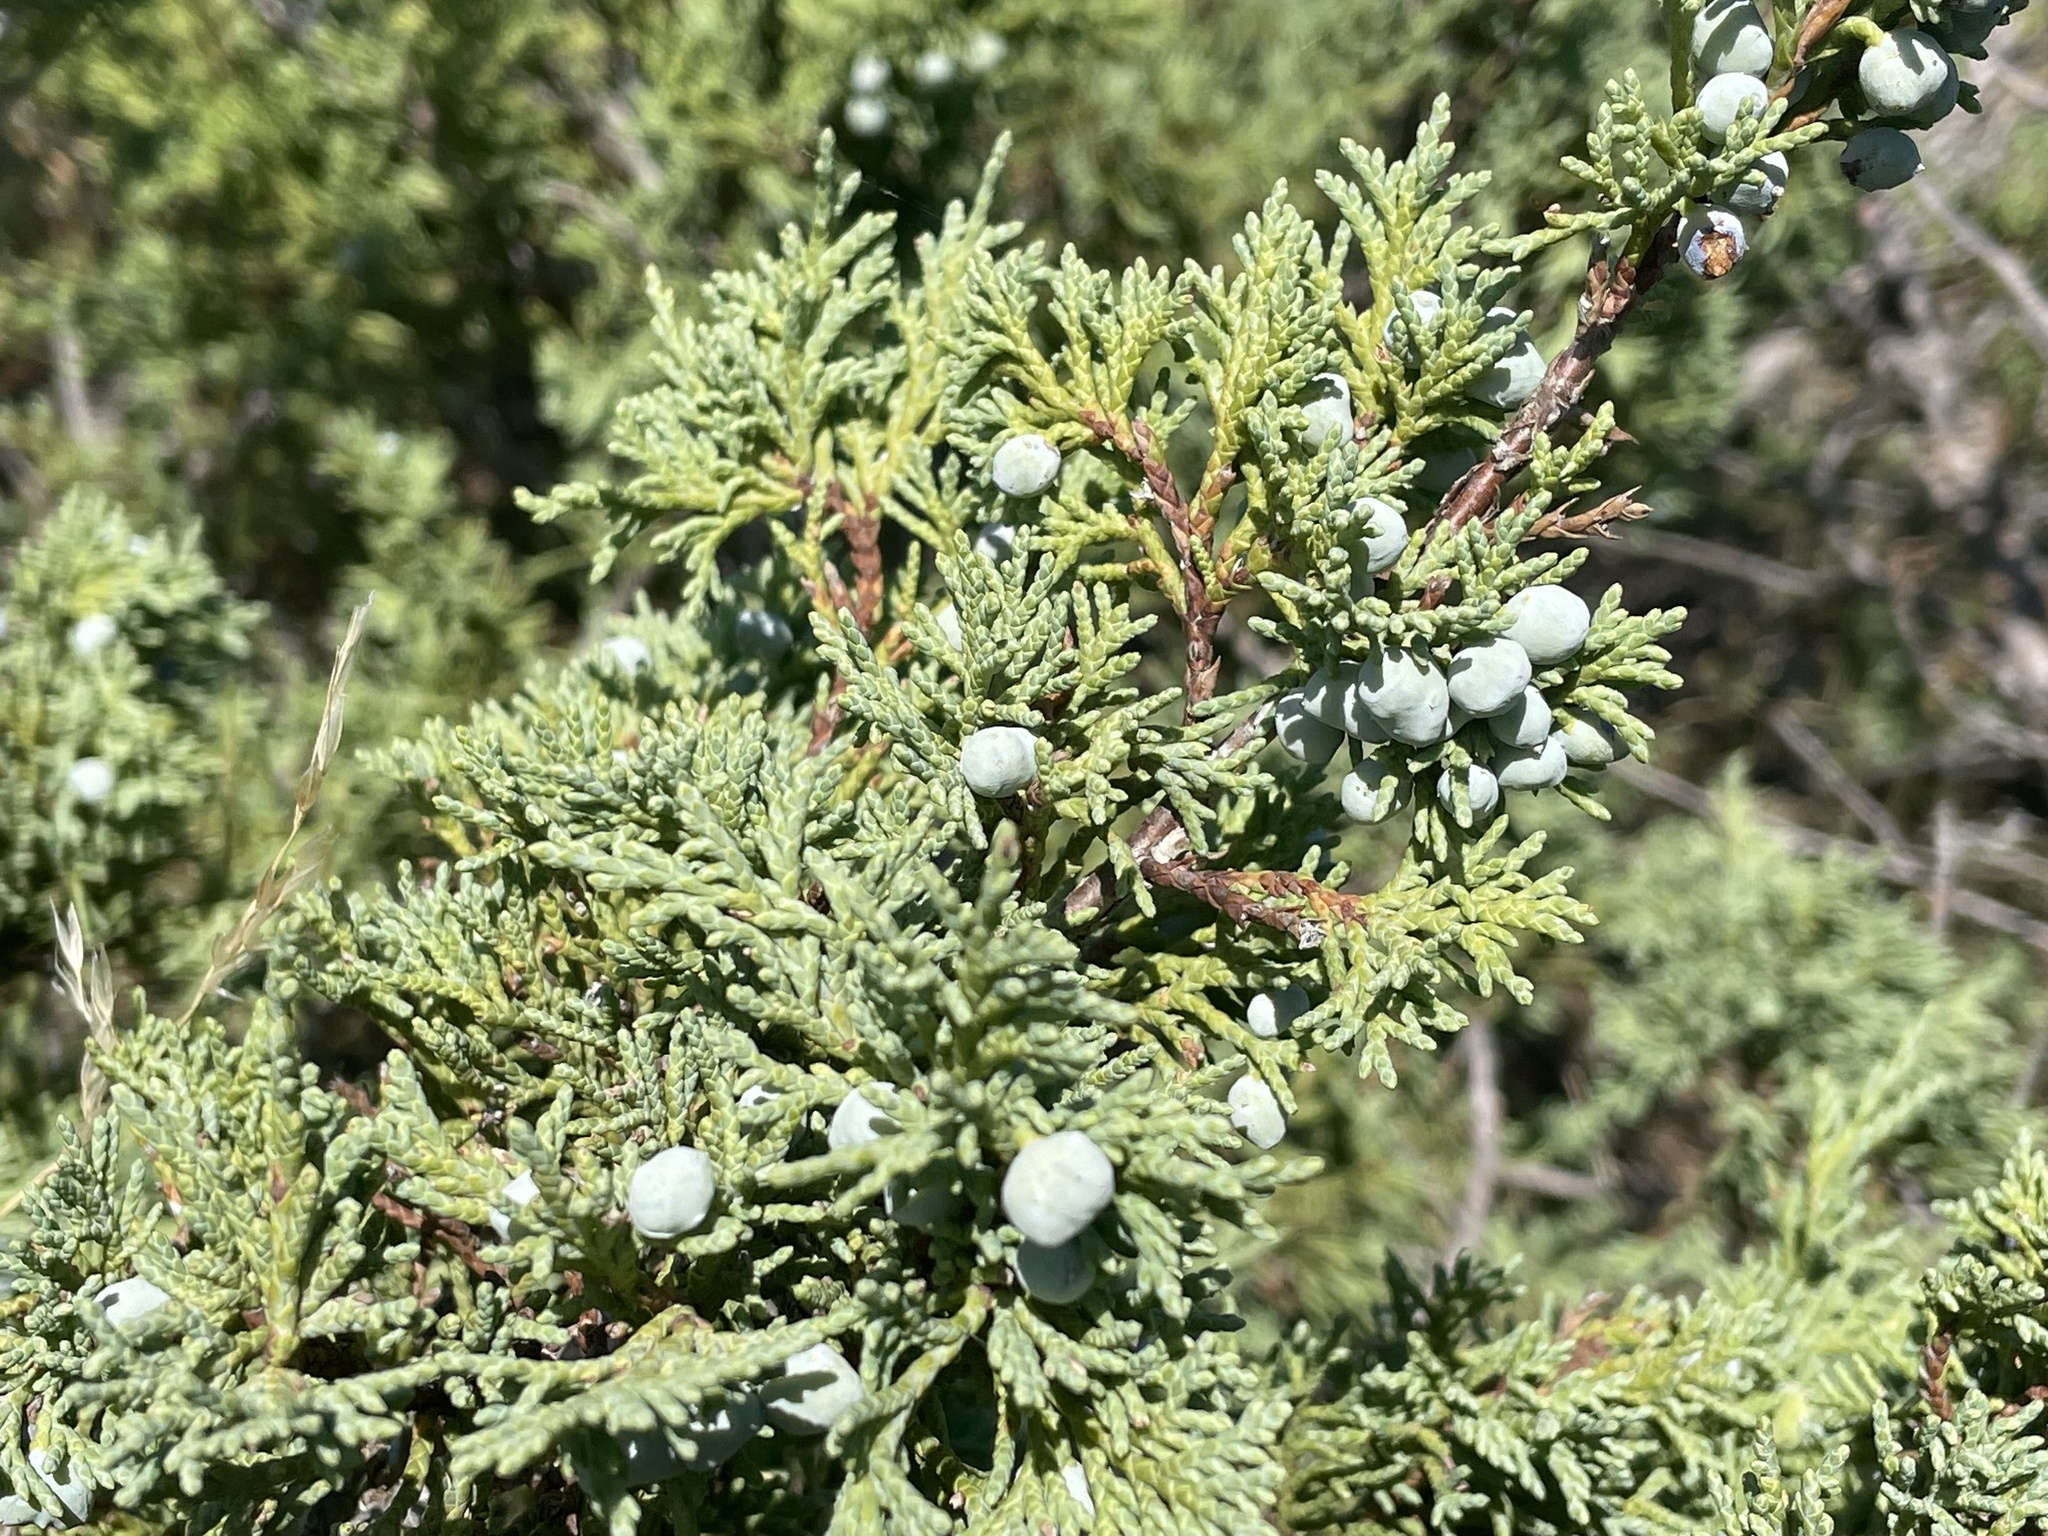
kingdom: Plantae
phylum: Tracheophyta
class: Pinopsida
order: Pinales
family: Cupressaceae
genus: Juniperus
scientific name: Juniperus scopulorum
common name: Rocky mountain juniper
